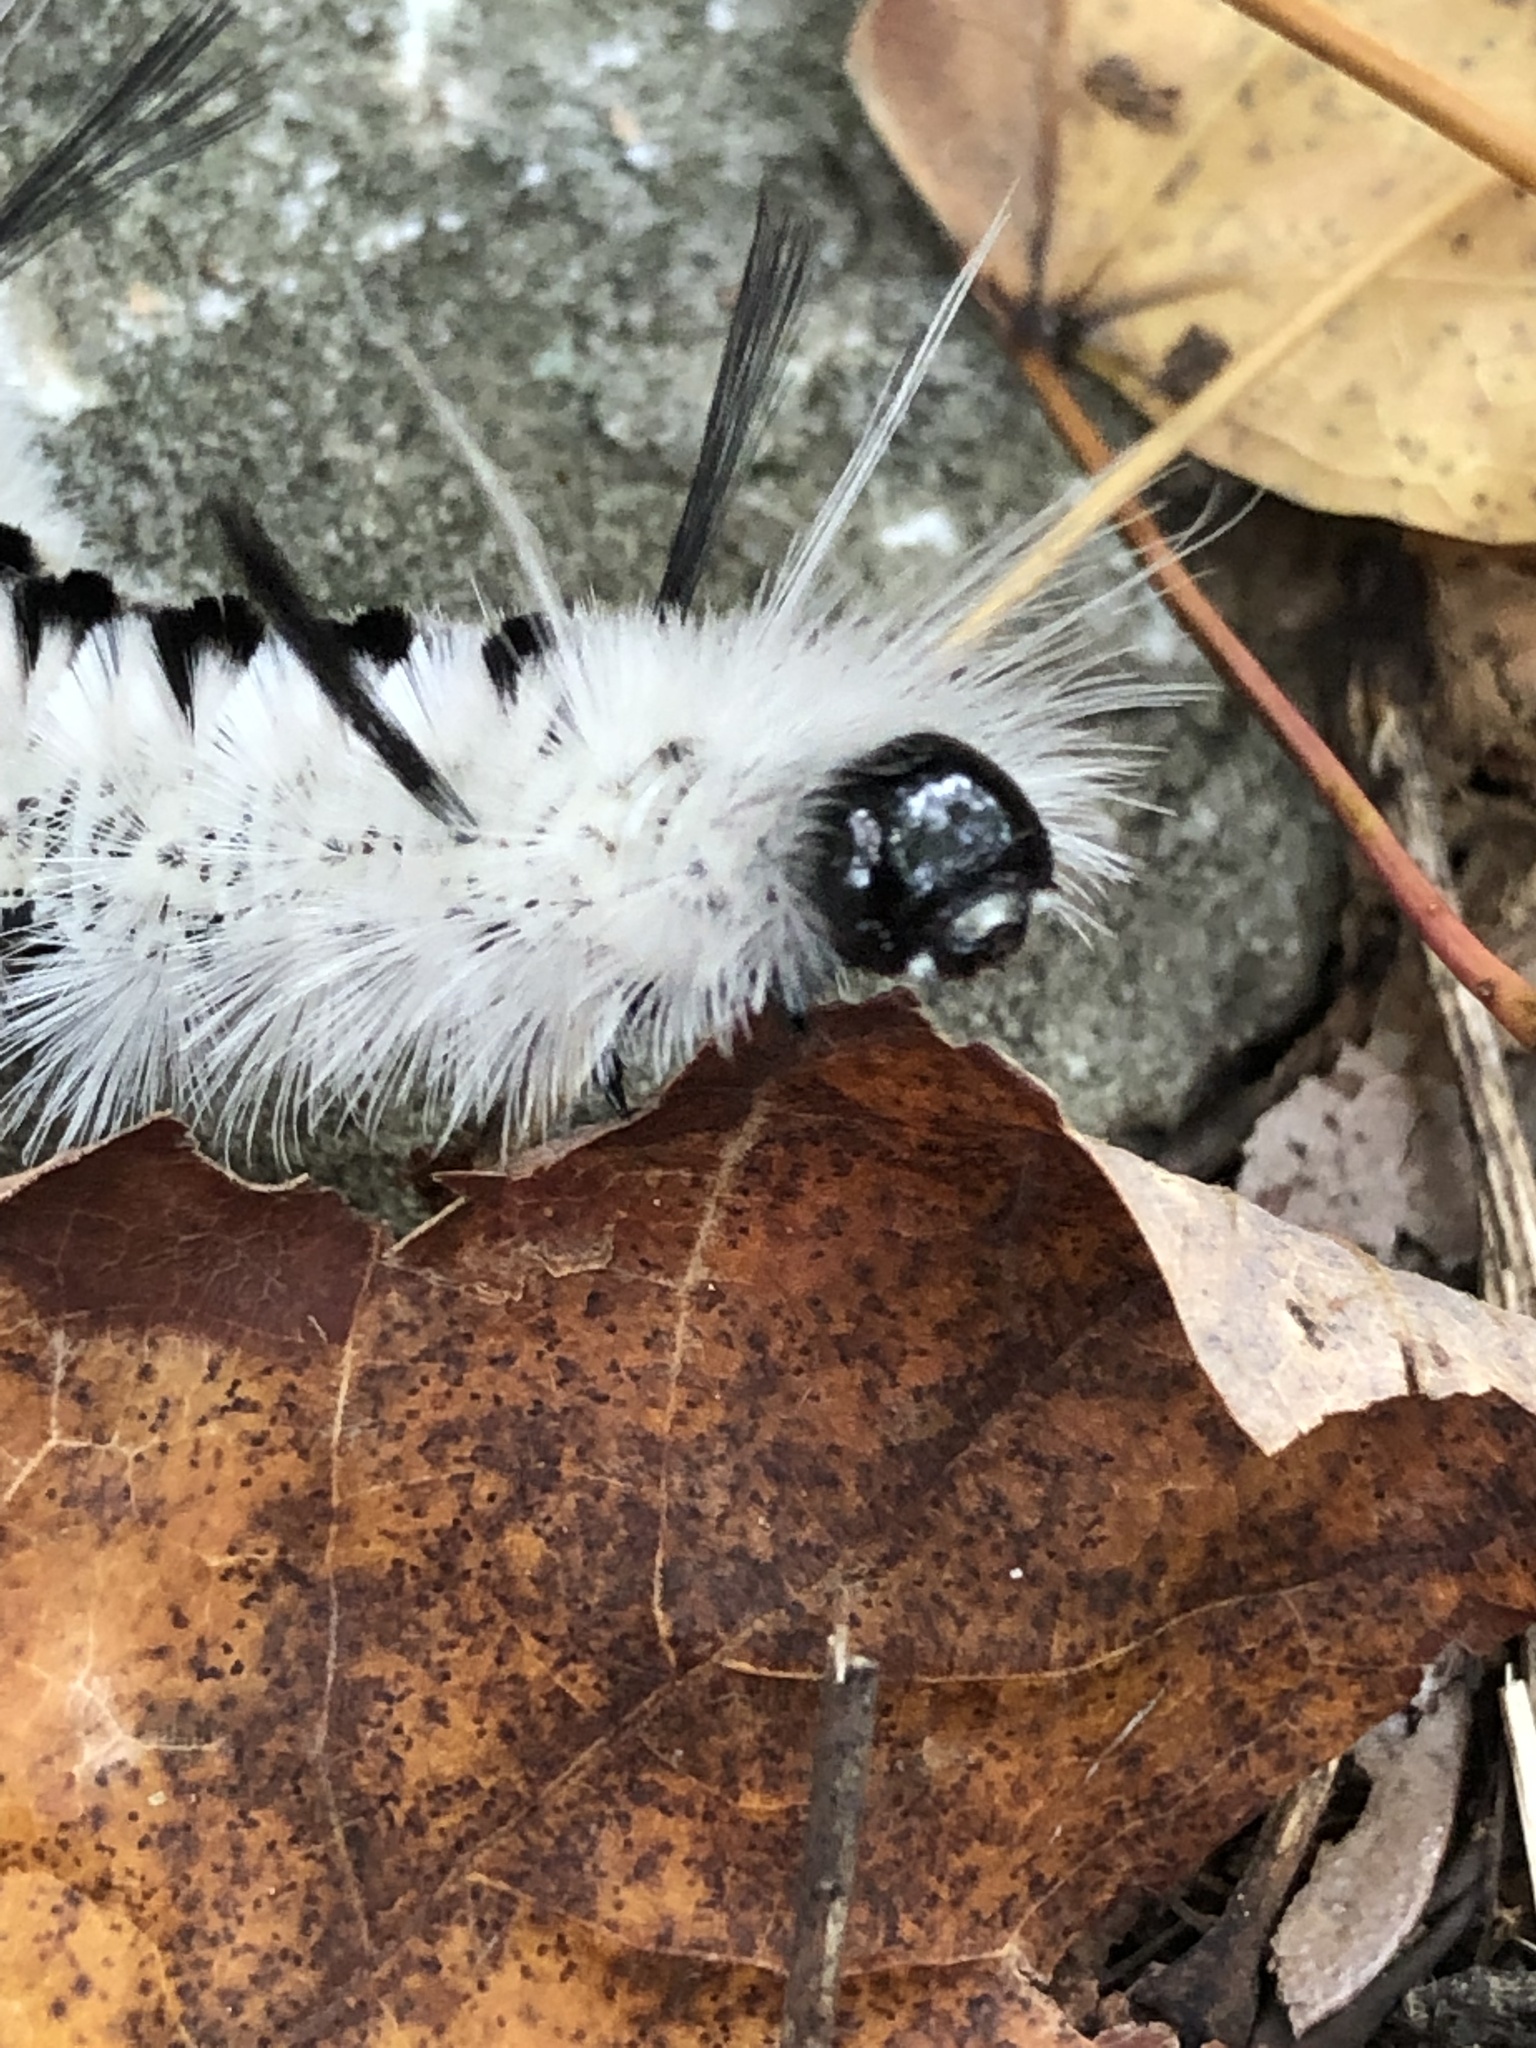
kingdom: Animalia
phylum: Arthropoda
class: Insecta
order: Lepidoptera
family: Erebidae
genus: Lophocampa
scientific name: Lophocampa caryae
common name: Hickory tussock moth
